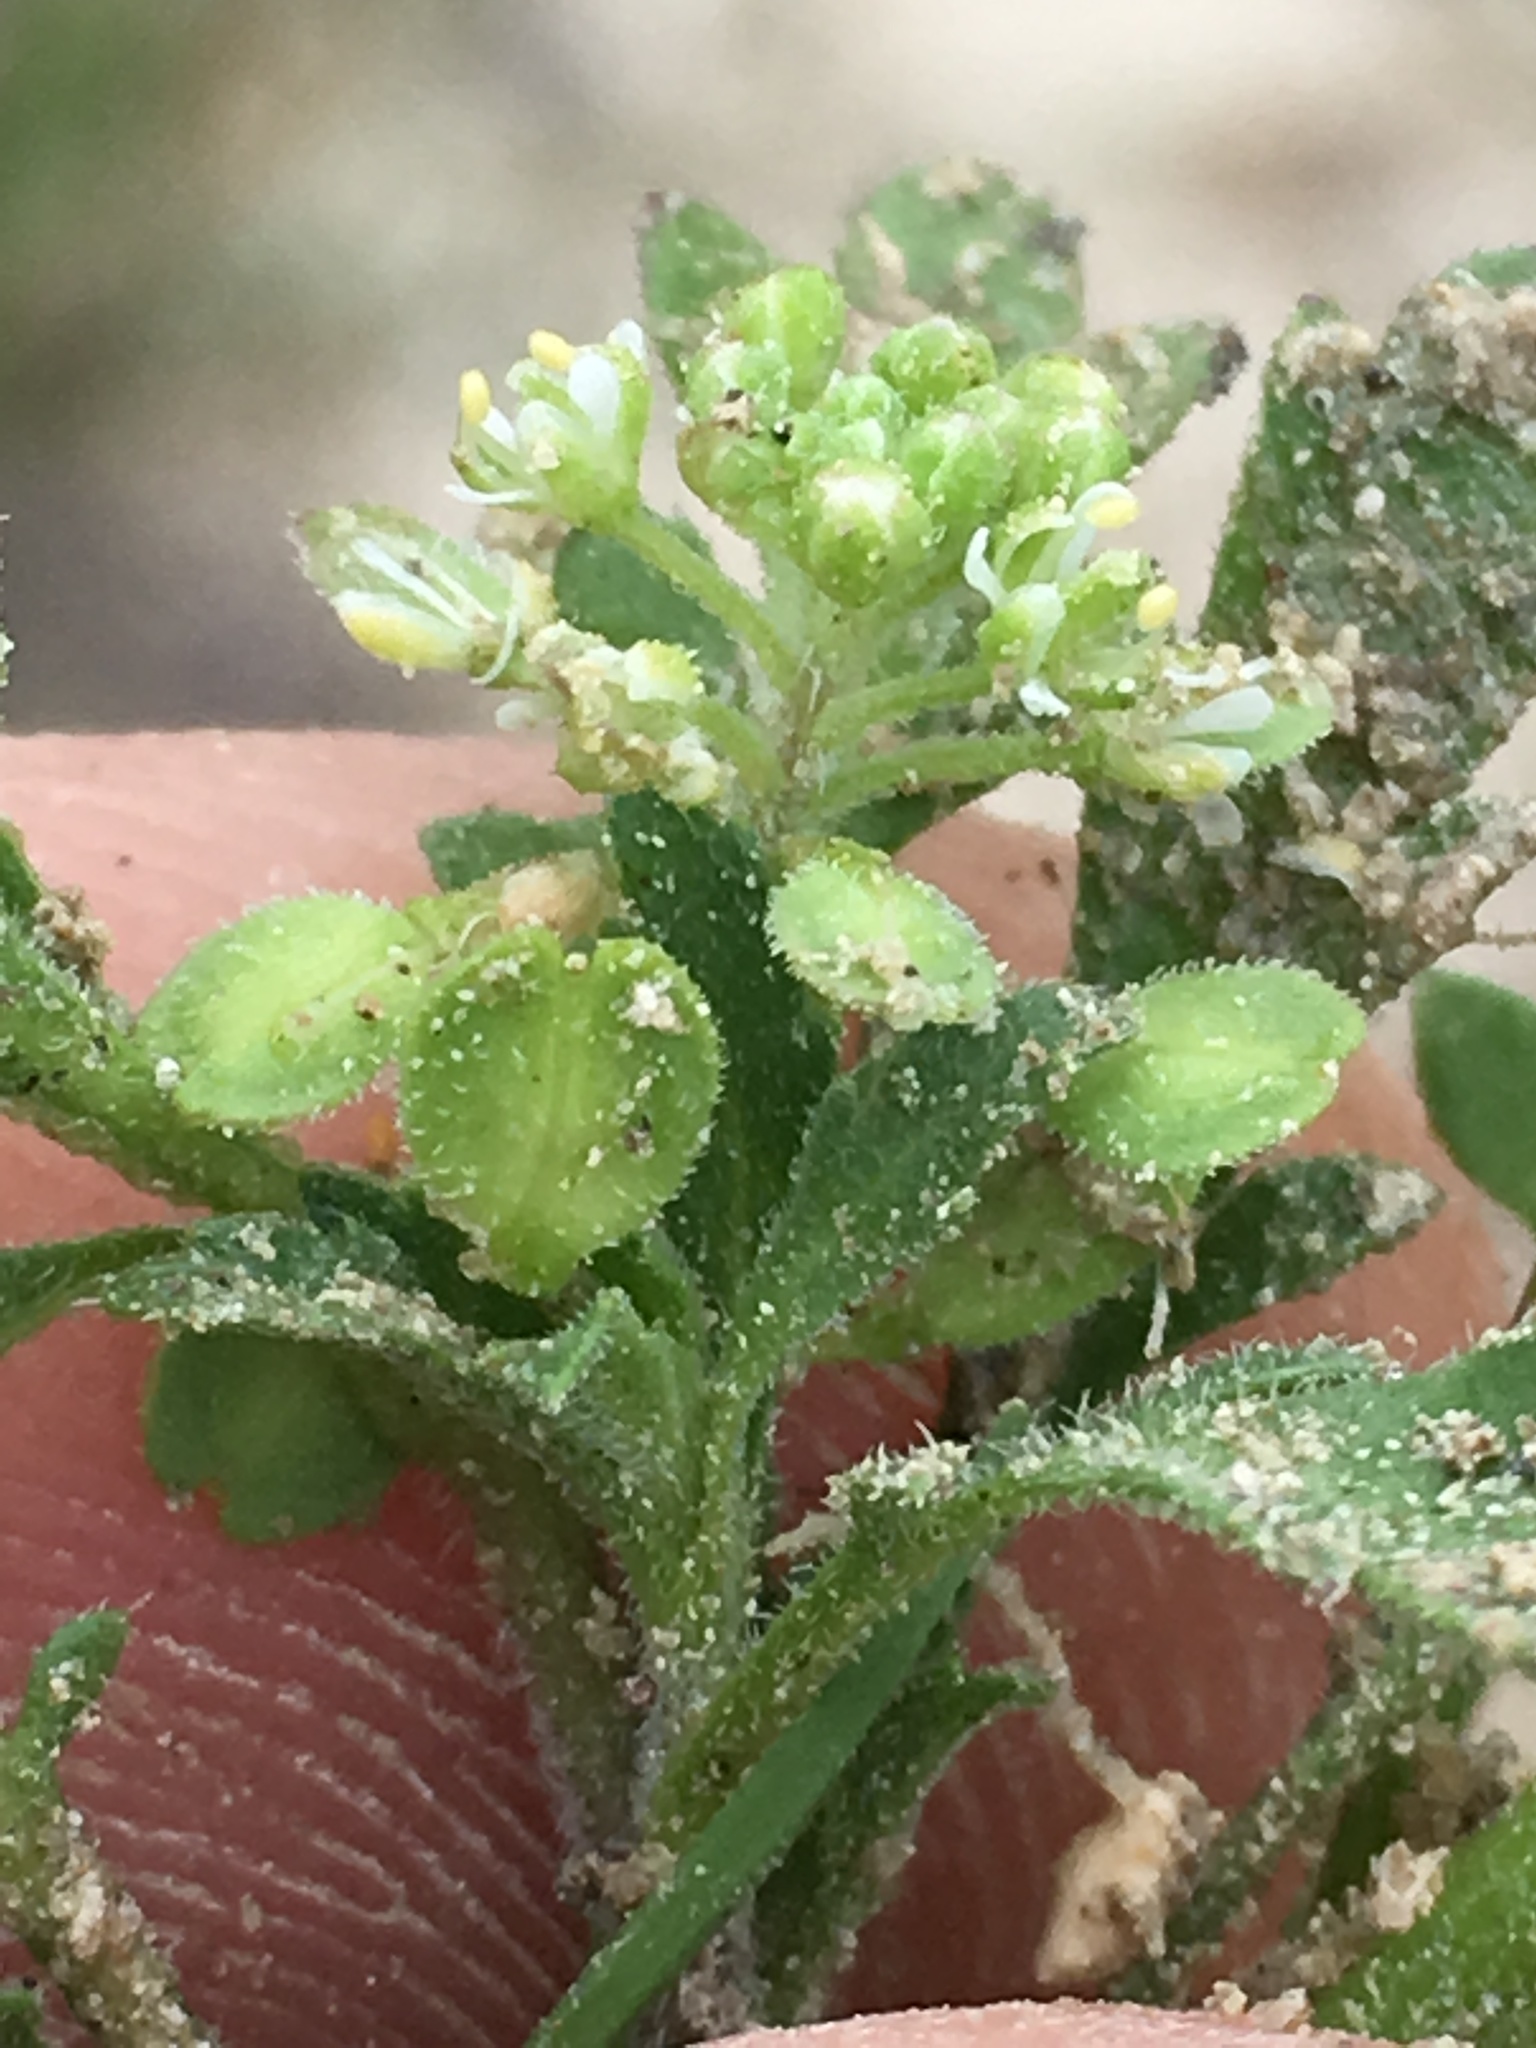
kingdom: Plantae
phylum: Tracheophyta
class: Magnoliopsida
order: Brassicales
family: Brassicaceae
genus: Lepidium
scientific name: Lepidium lasiocarpum
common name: Hairy-pod pepperwort
